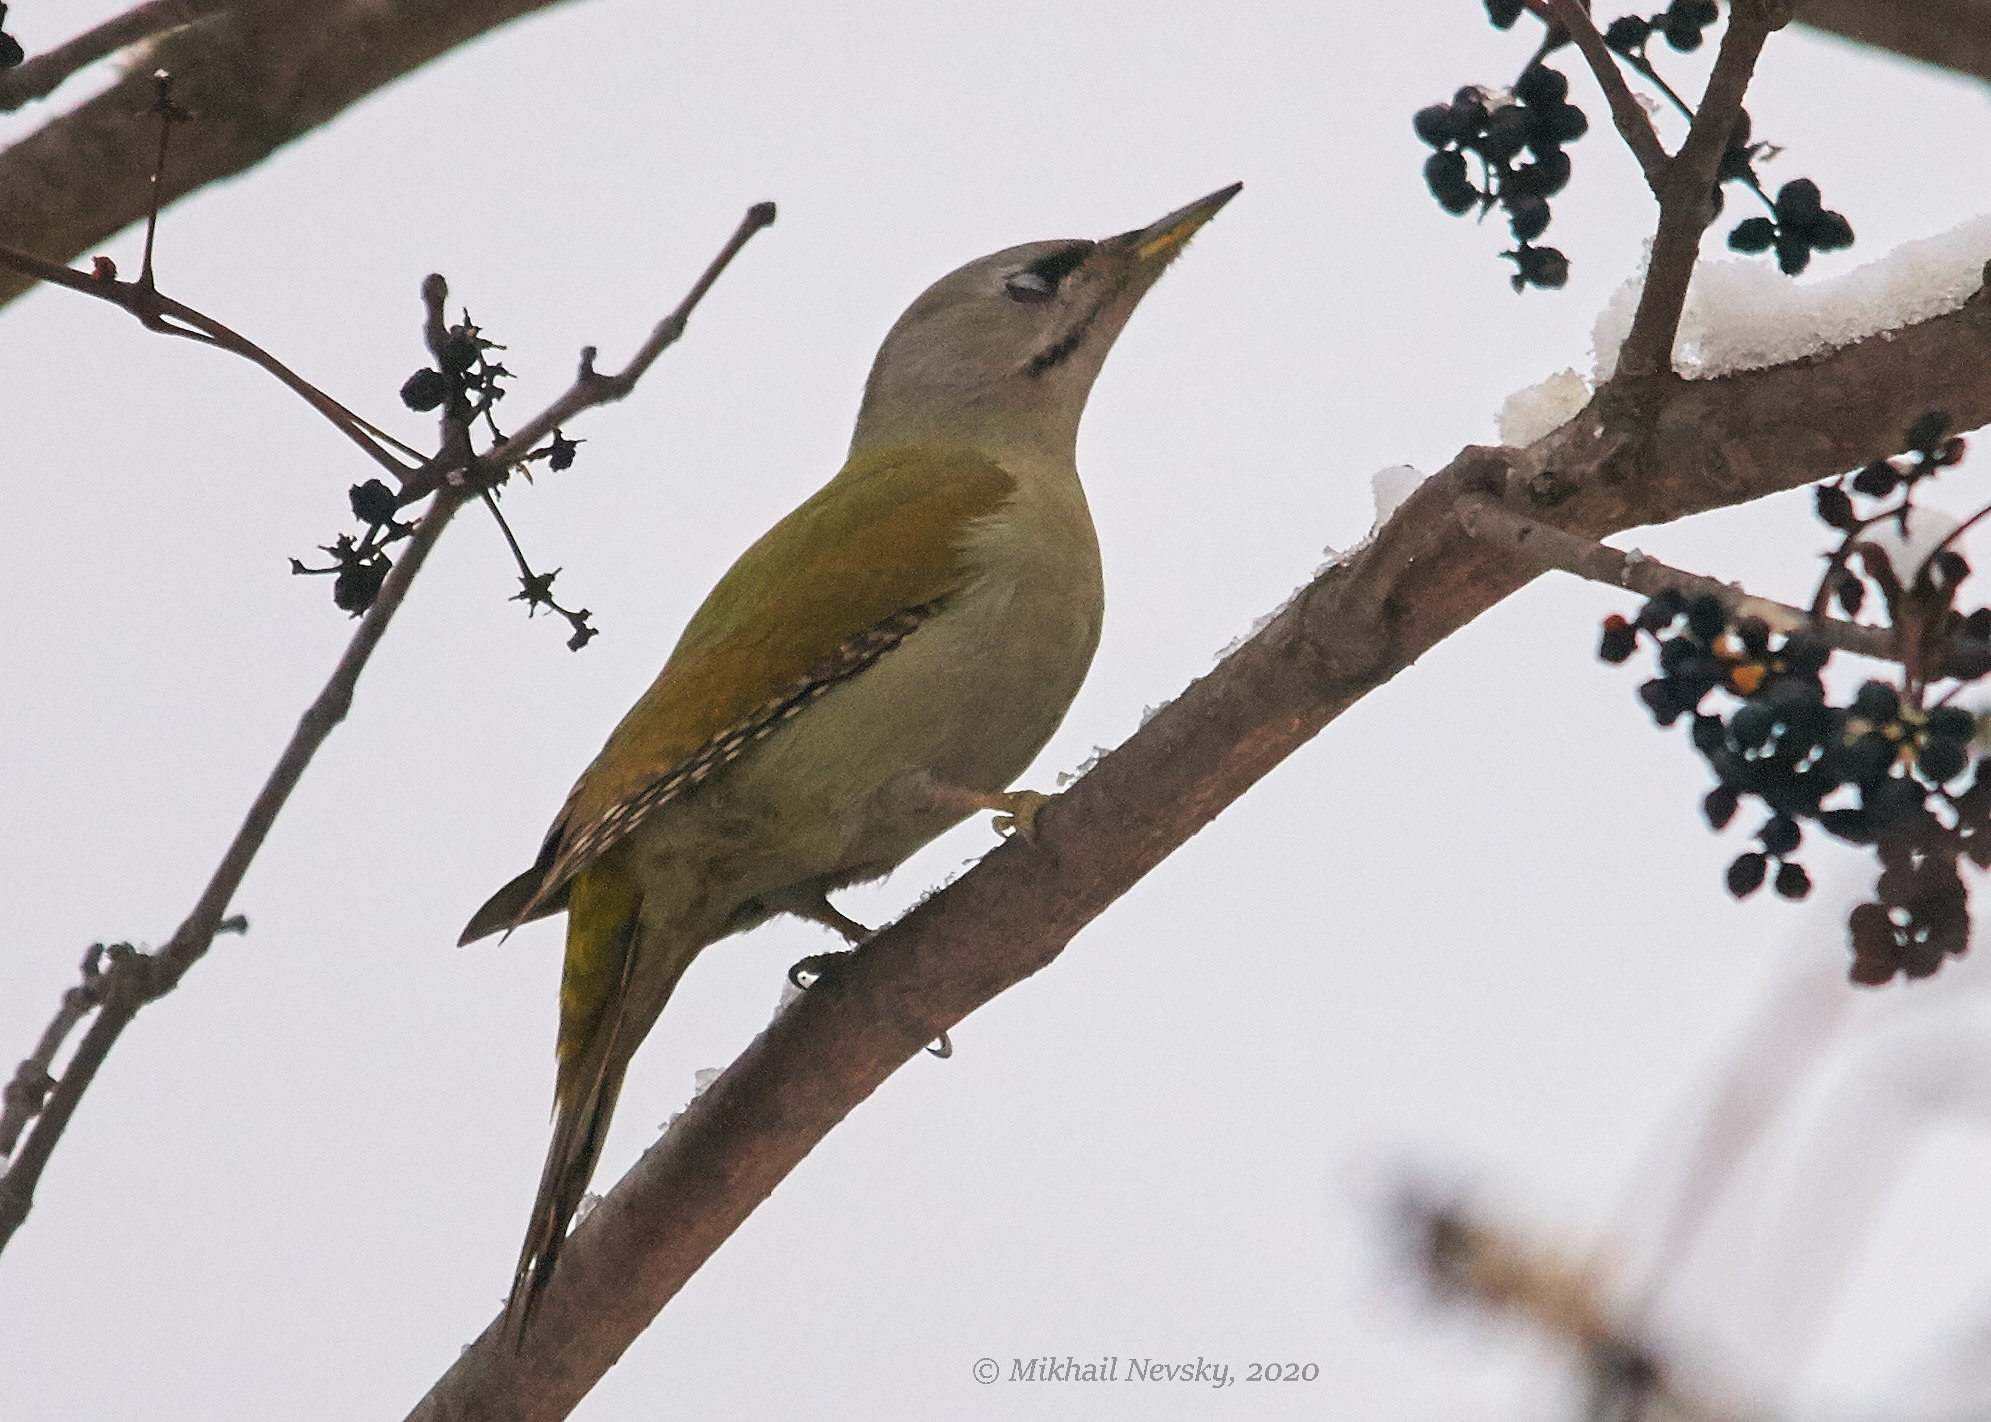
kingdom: Animalia
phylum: Chordata
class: Aves
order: Piciformes
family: Picidae
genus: Picus
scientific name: Picus canus
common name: Grey-headed woodpecker
